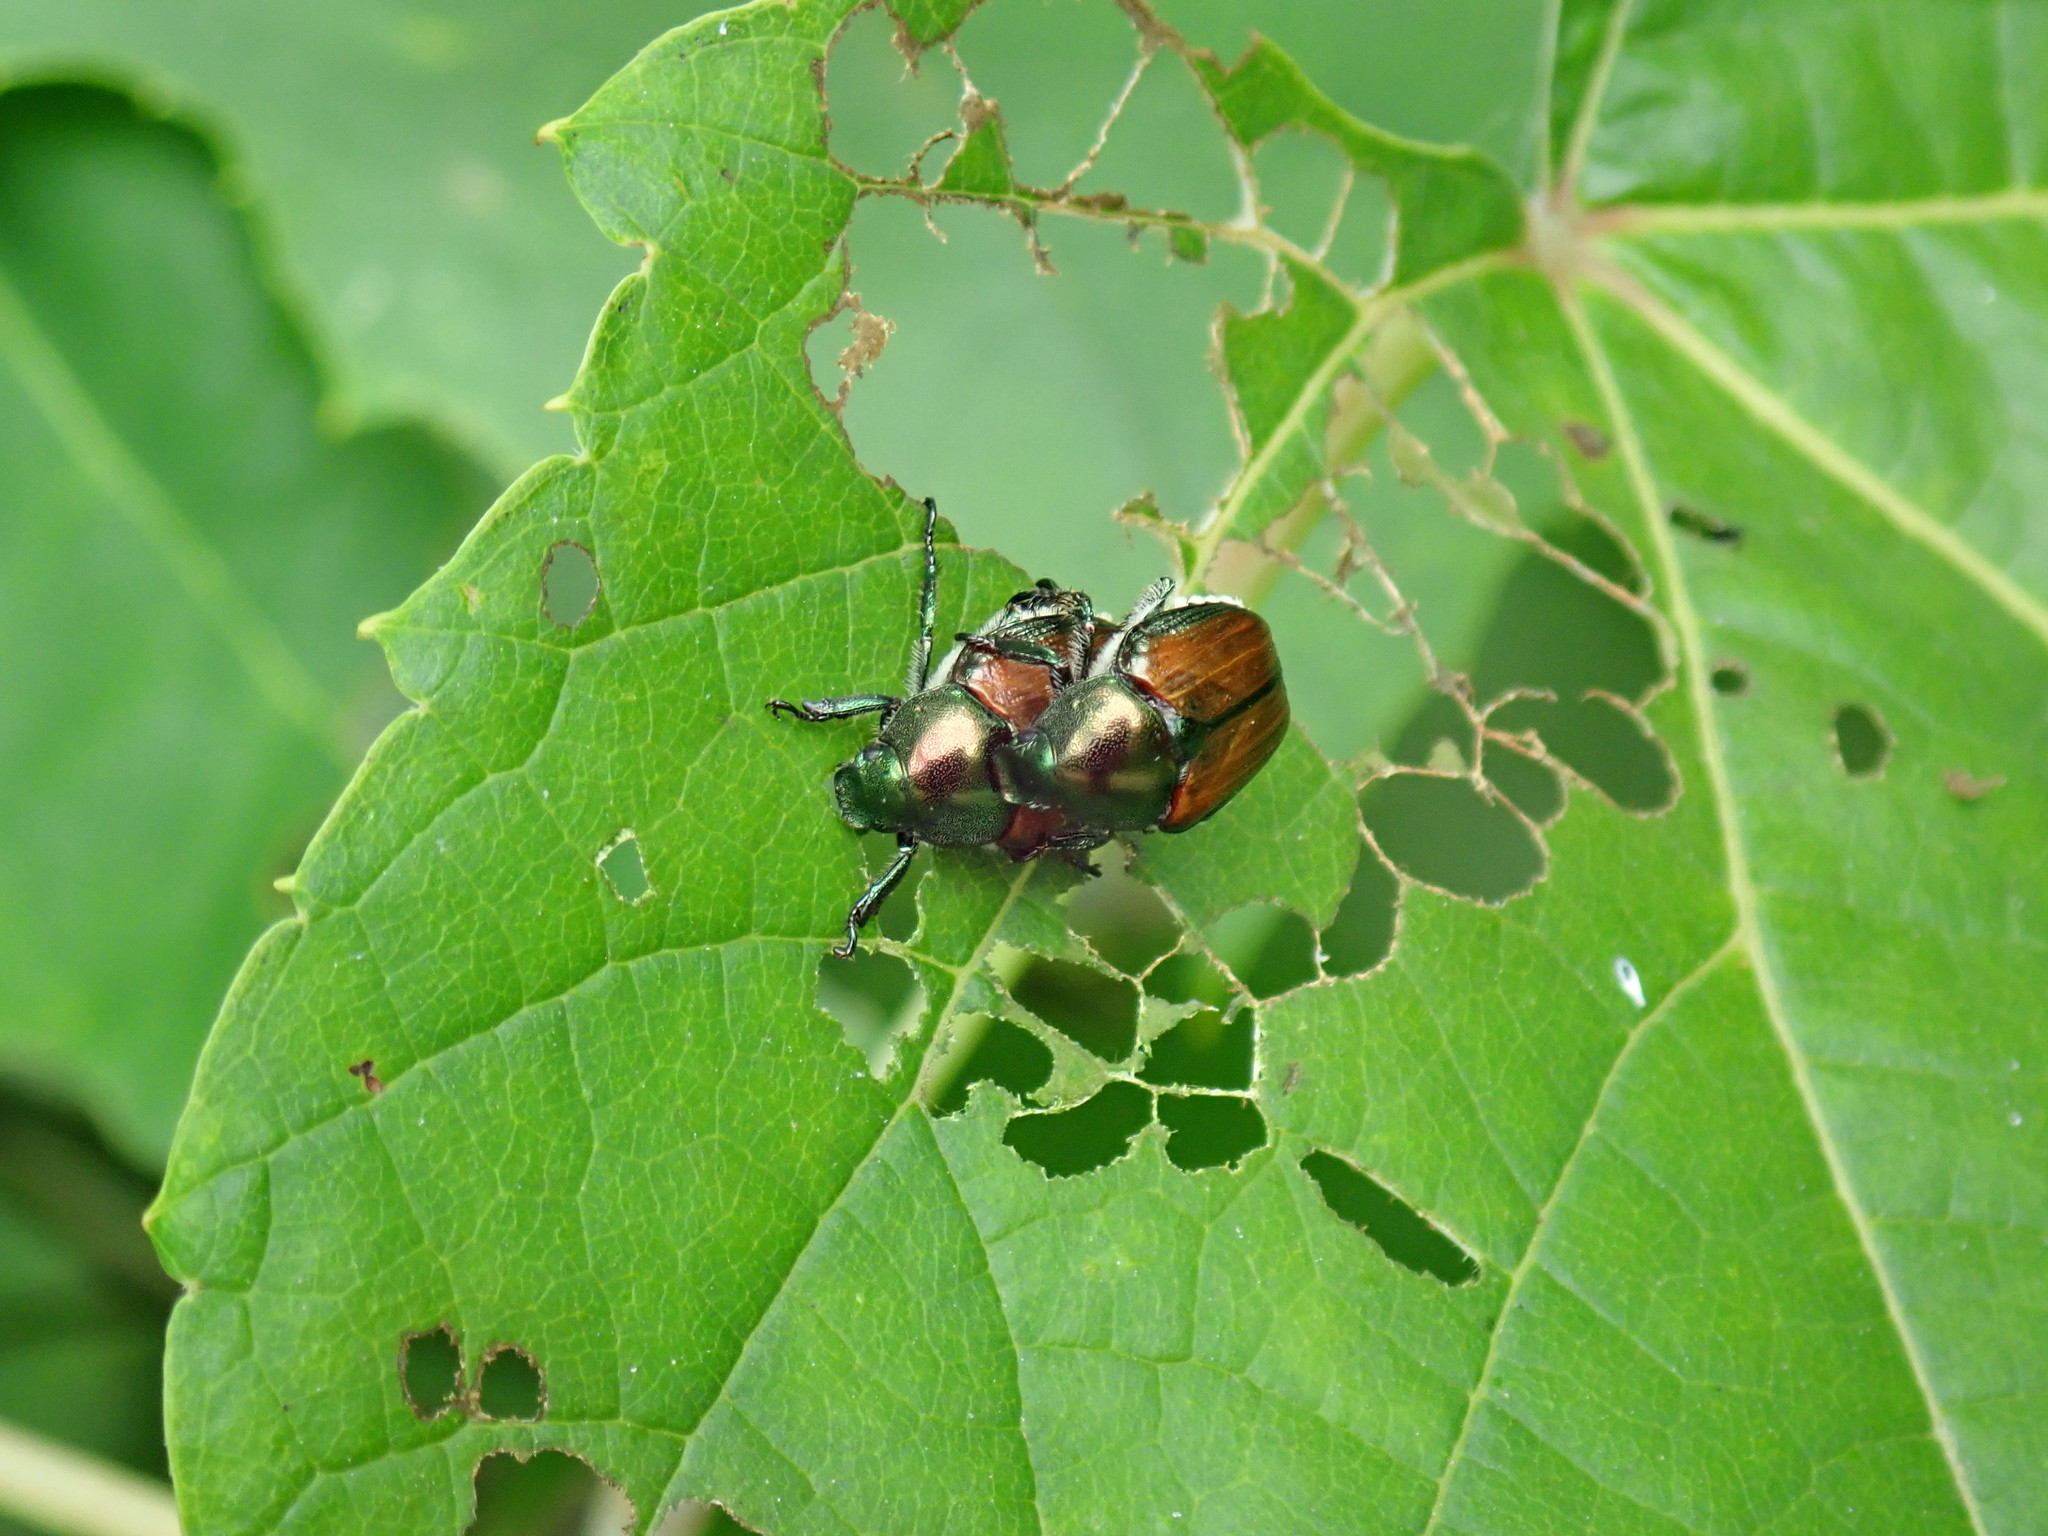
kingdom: Animalia
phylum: Arthropoda
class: Insecta
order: Coleoptera
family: Scarabaeidae
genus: Popillia
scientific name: Popillia japonica
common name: Japanese beetle
